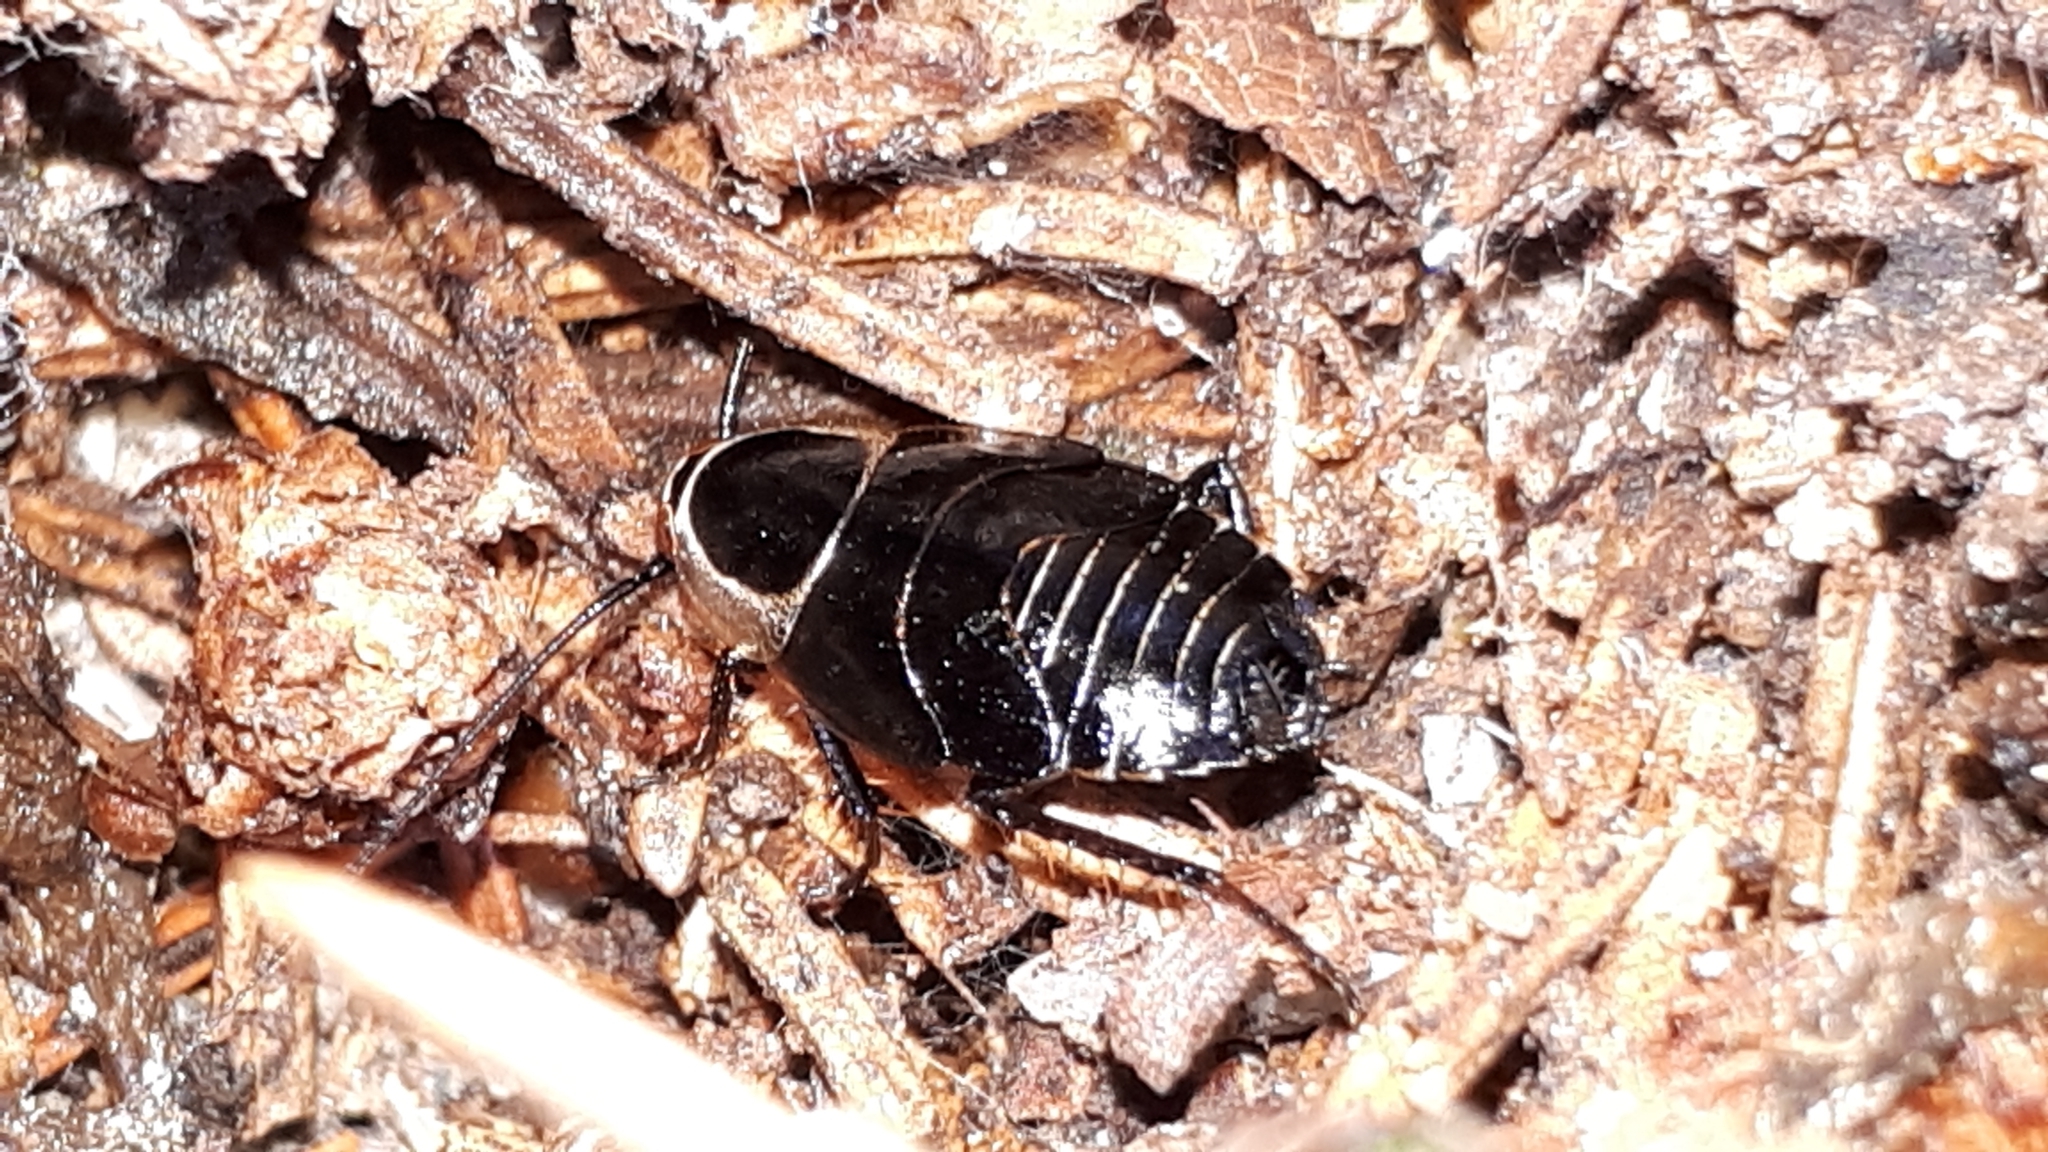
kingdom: Animalia
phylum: Arthropoda
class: Insecta
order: Blattodea
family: Ectobiidae
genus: Ectobius
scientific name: Ectobius sylvestris
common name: Forest cockroach
